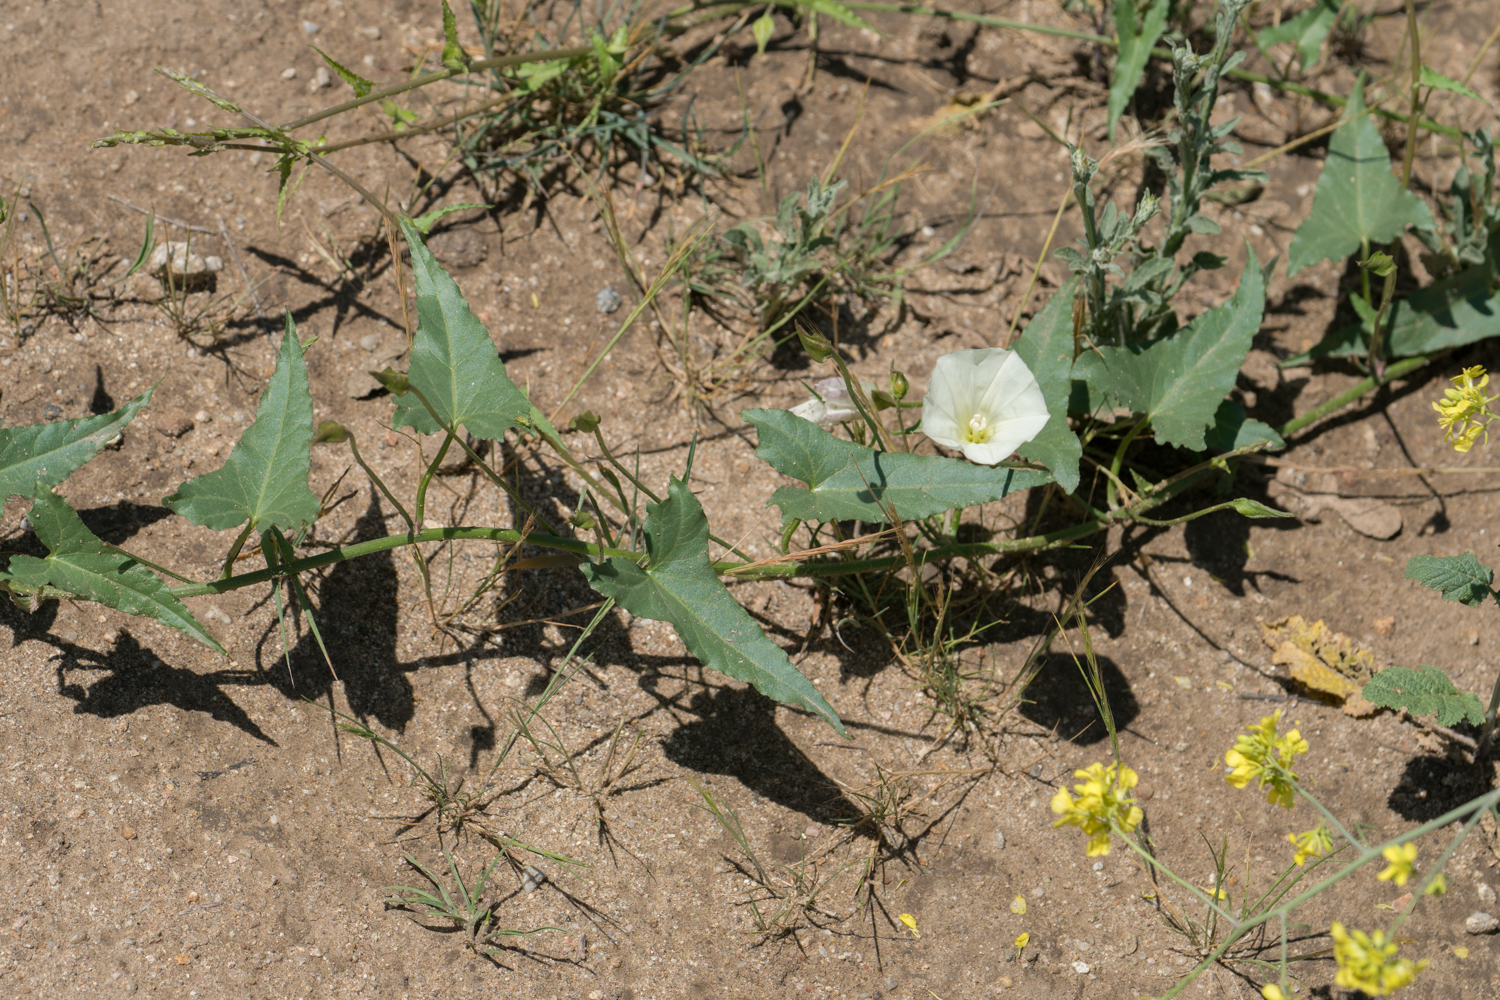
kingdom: Plantae
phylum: Tracheophyta
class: Magnoliopsida
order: Solanales
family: Convolvulaceae
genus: Calystegia
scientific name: Calystegia macrostegia
